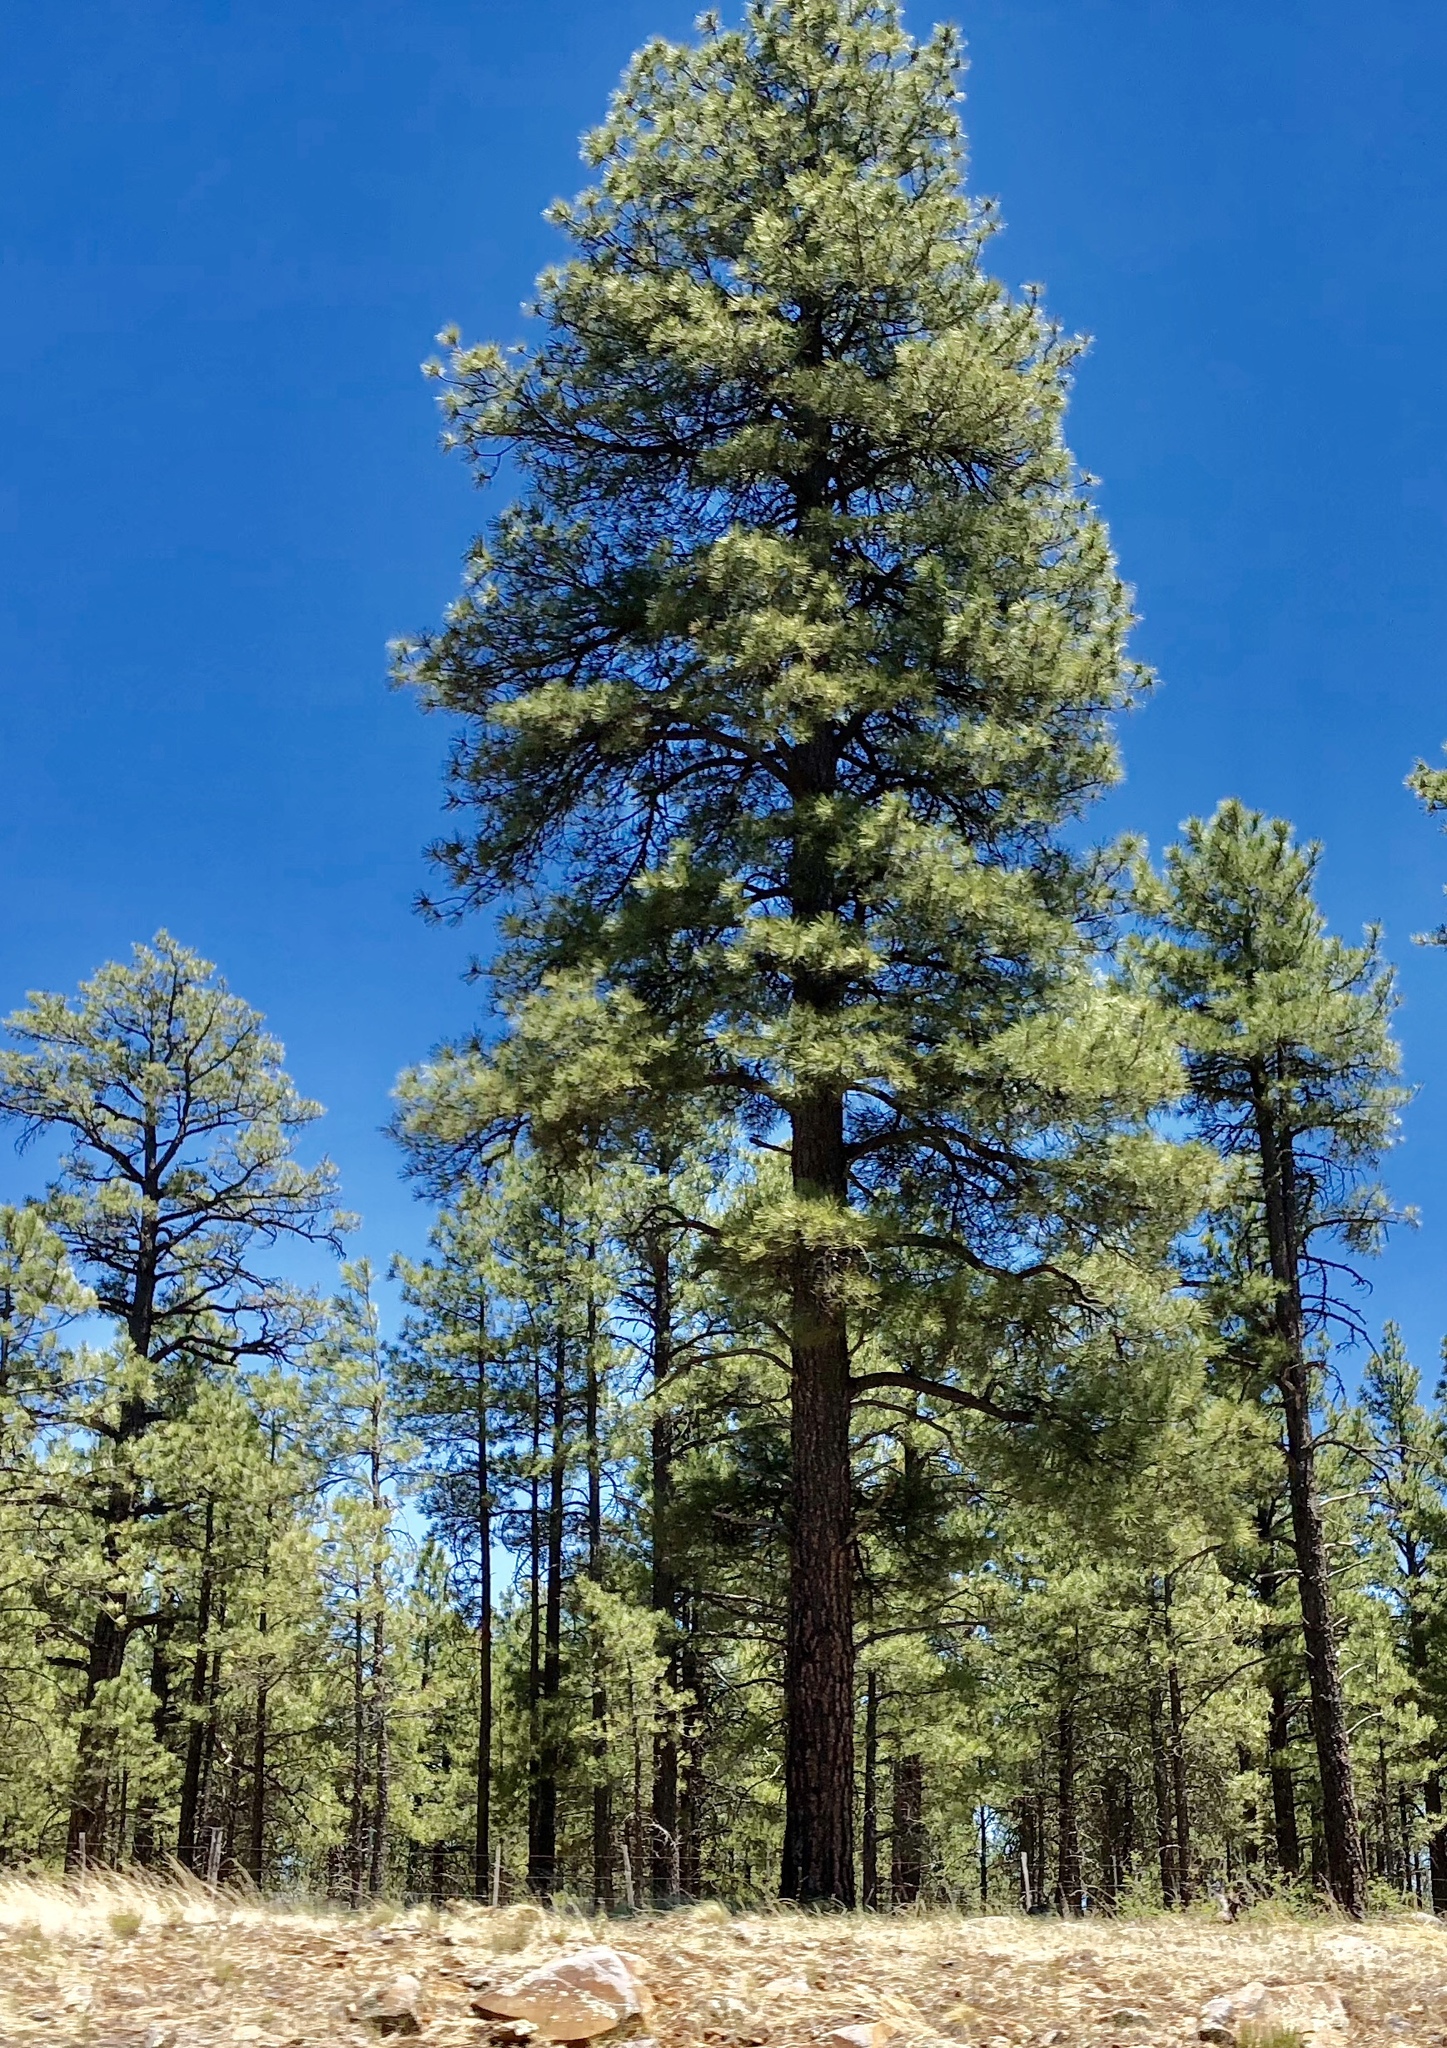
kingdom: Plantae
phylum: Tracheophyta
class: Pinopsida
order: Pinales
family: Pinaceae
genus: Pinus
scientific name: Pinus ponderosa
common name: Western yellow-pine
